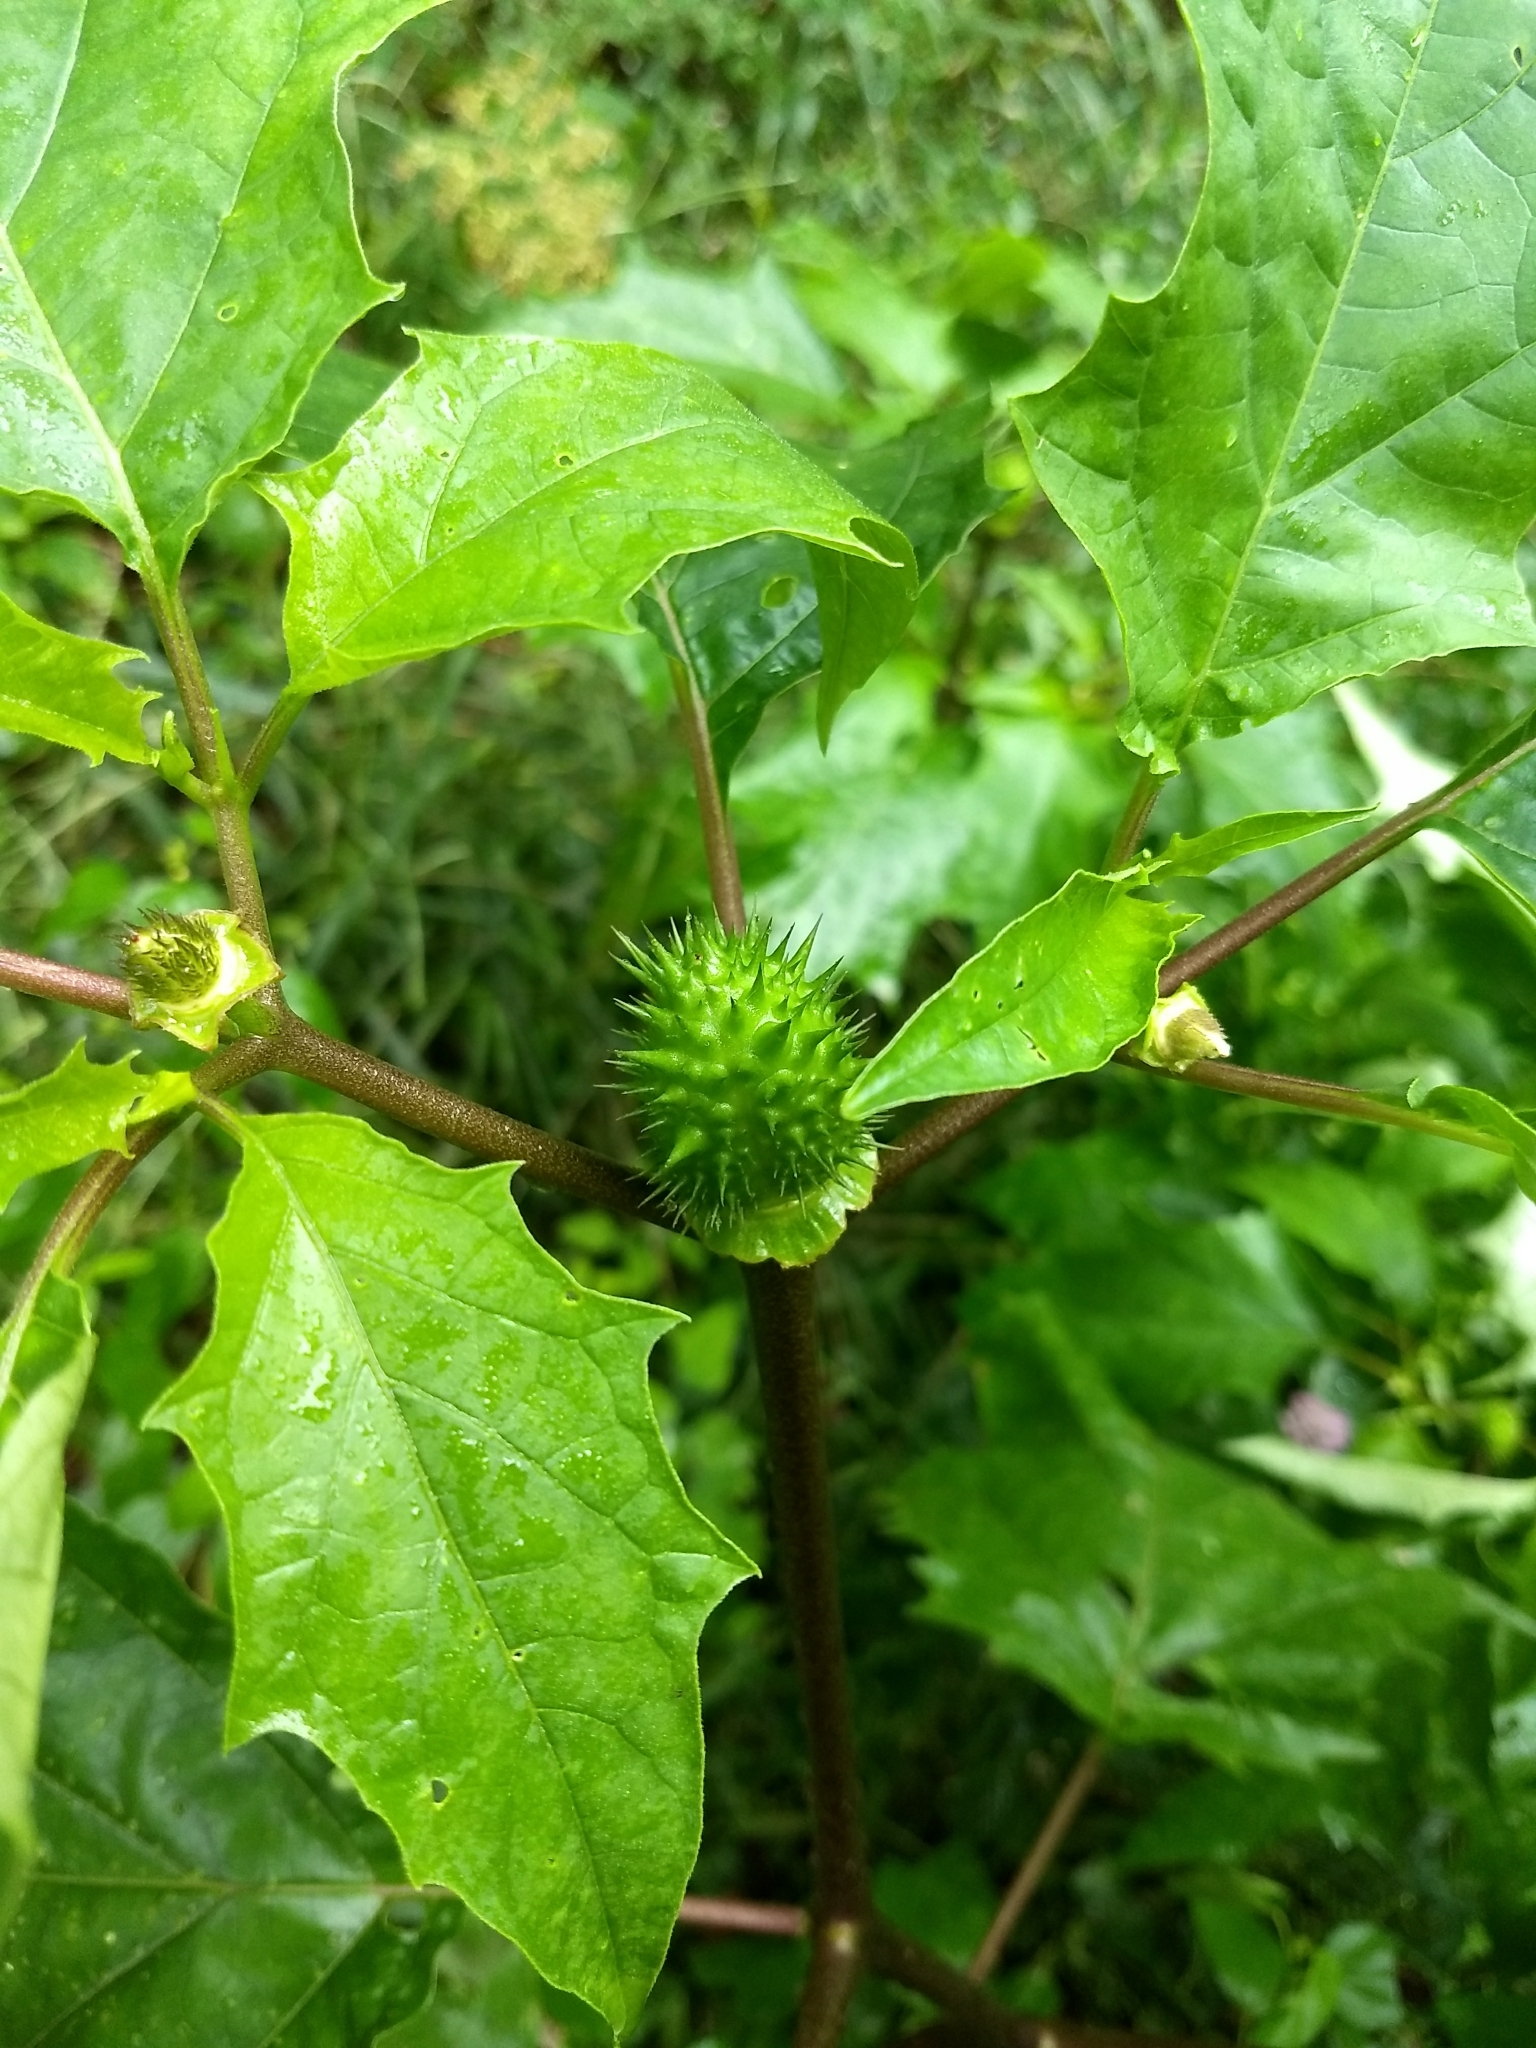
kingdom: Plantae
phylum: Tracheophyta
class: Magnoliopsida
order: Solanales
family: Solanaceae
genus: Datura
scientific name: Datura stramonium
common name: Thorn-apple
